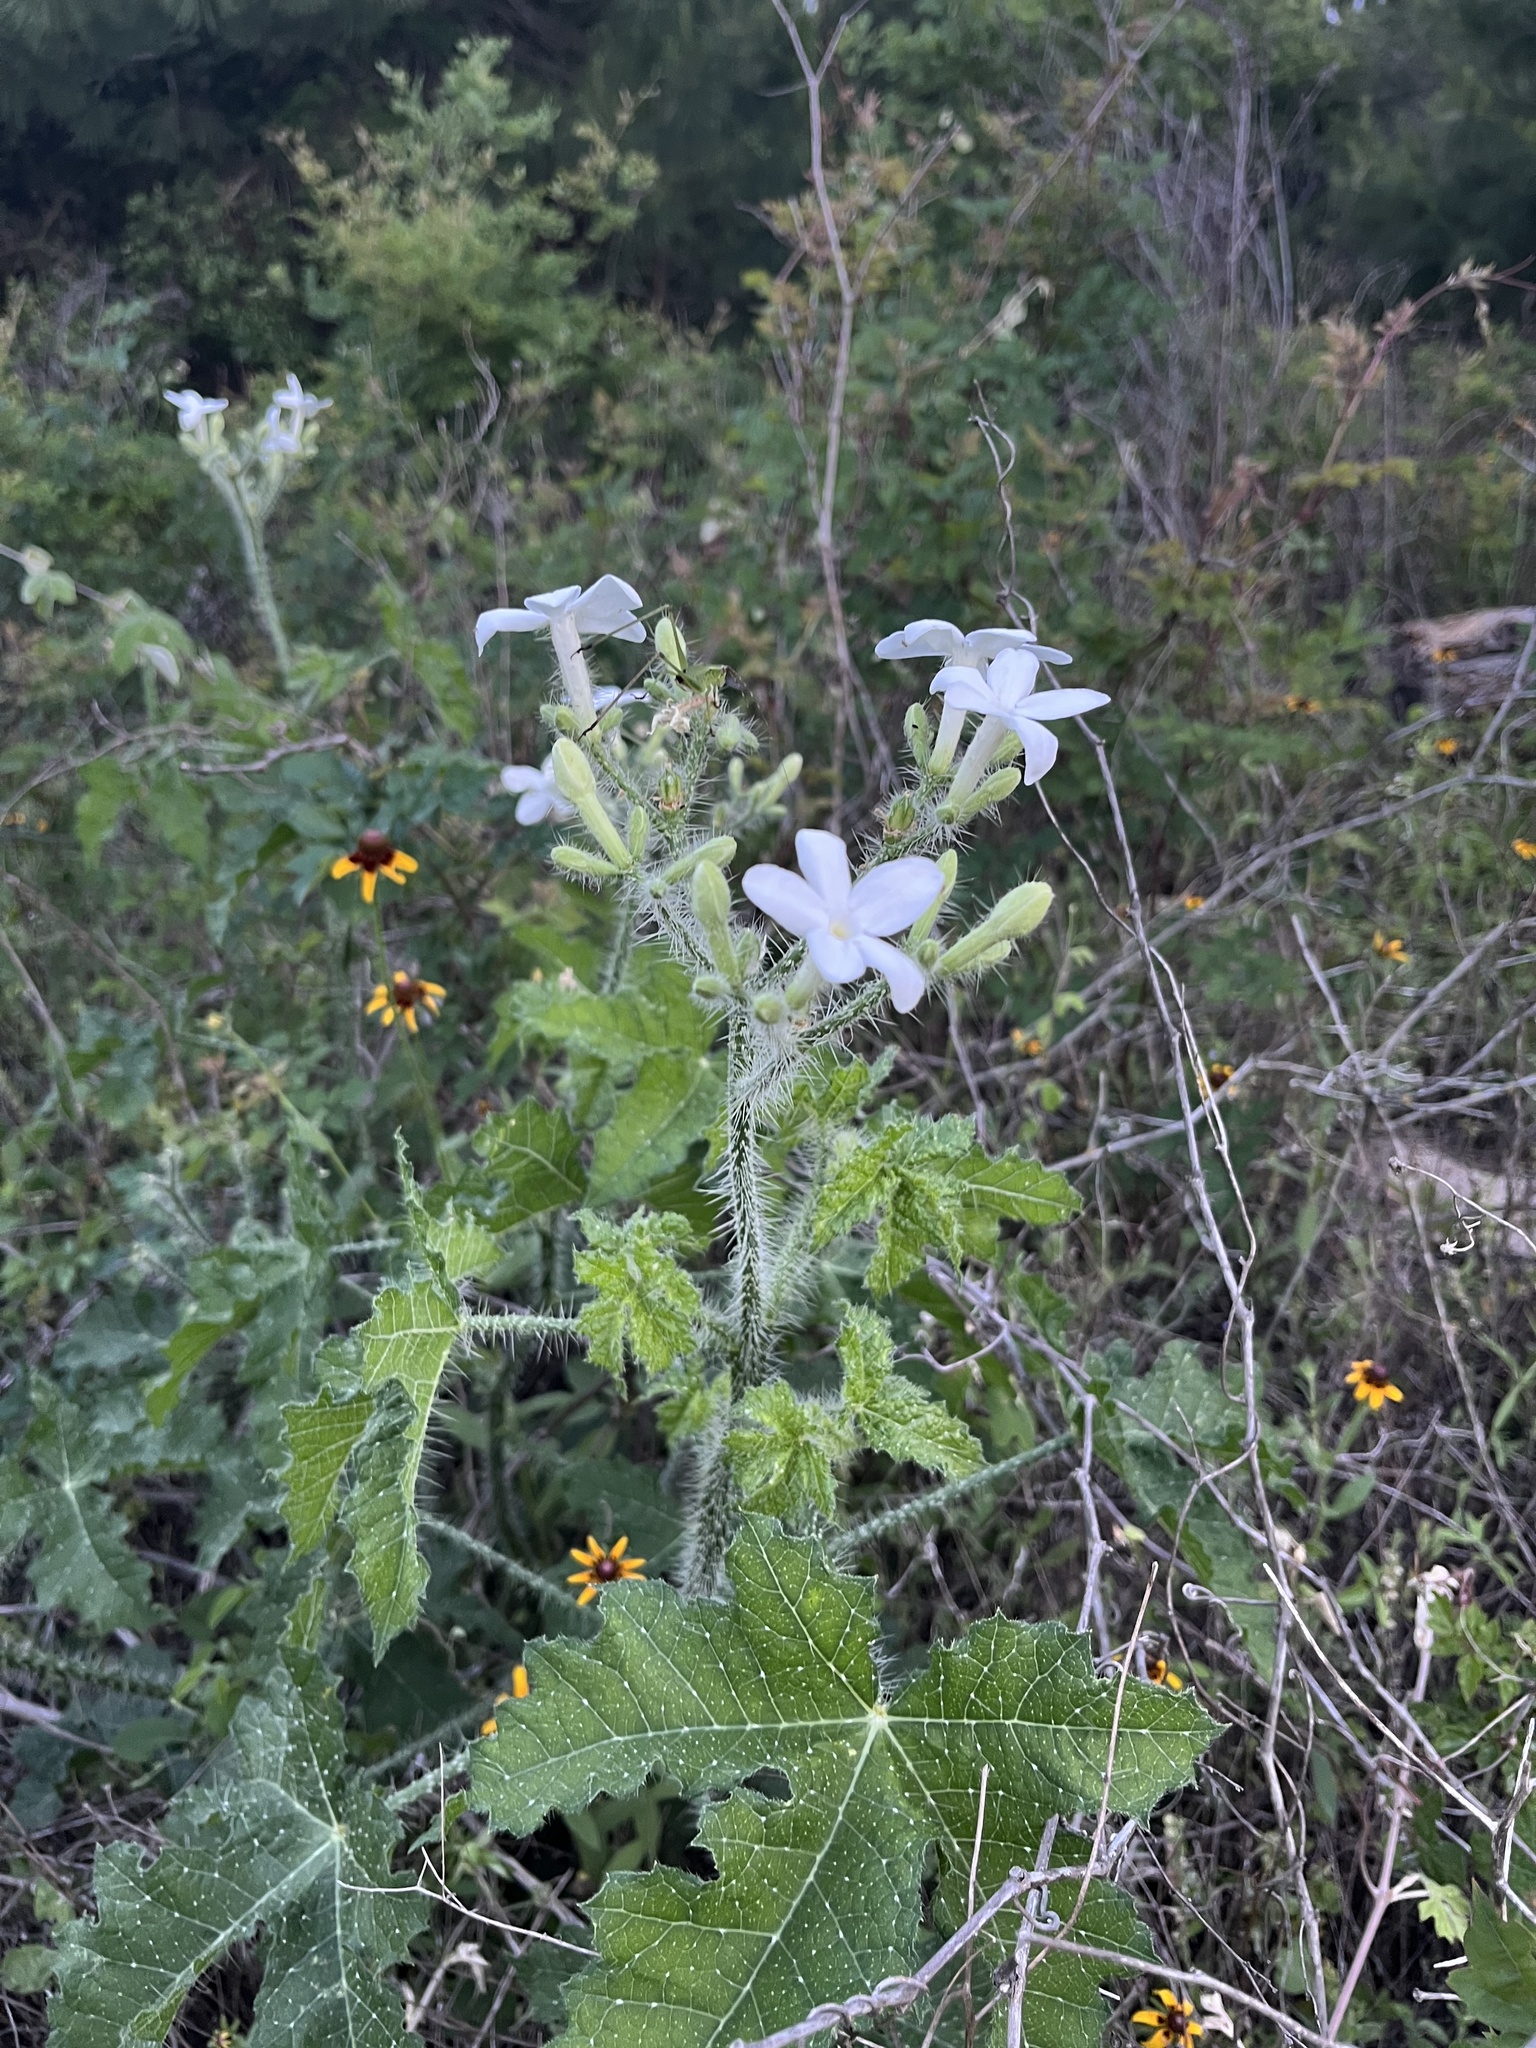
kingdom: Plantae
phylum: Tracheophyta
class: Magnoliopsida
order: Malpighiales
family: Euphorbiaceae
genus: Cnidoscolus
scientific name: Cnidoscolus texanus
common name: Texas bull-nettle
